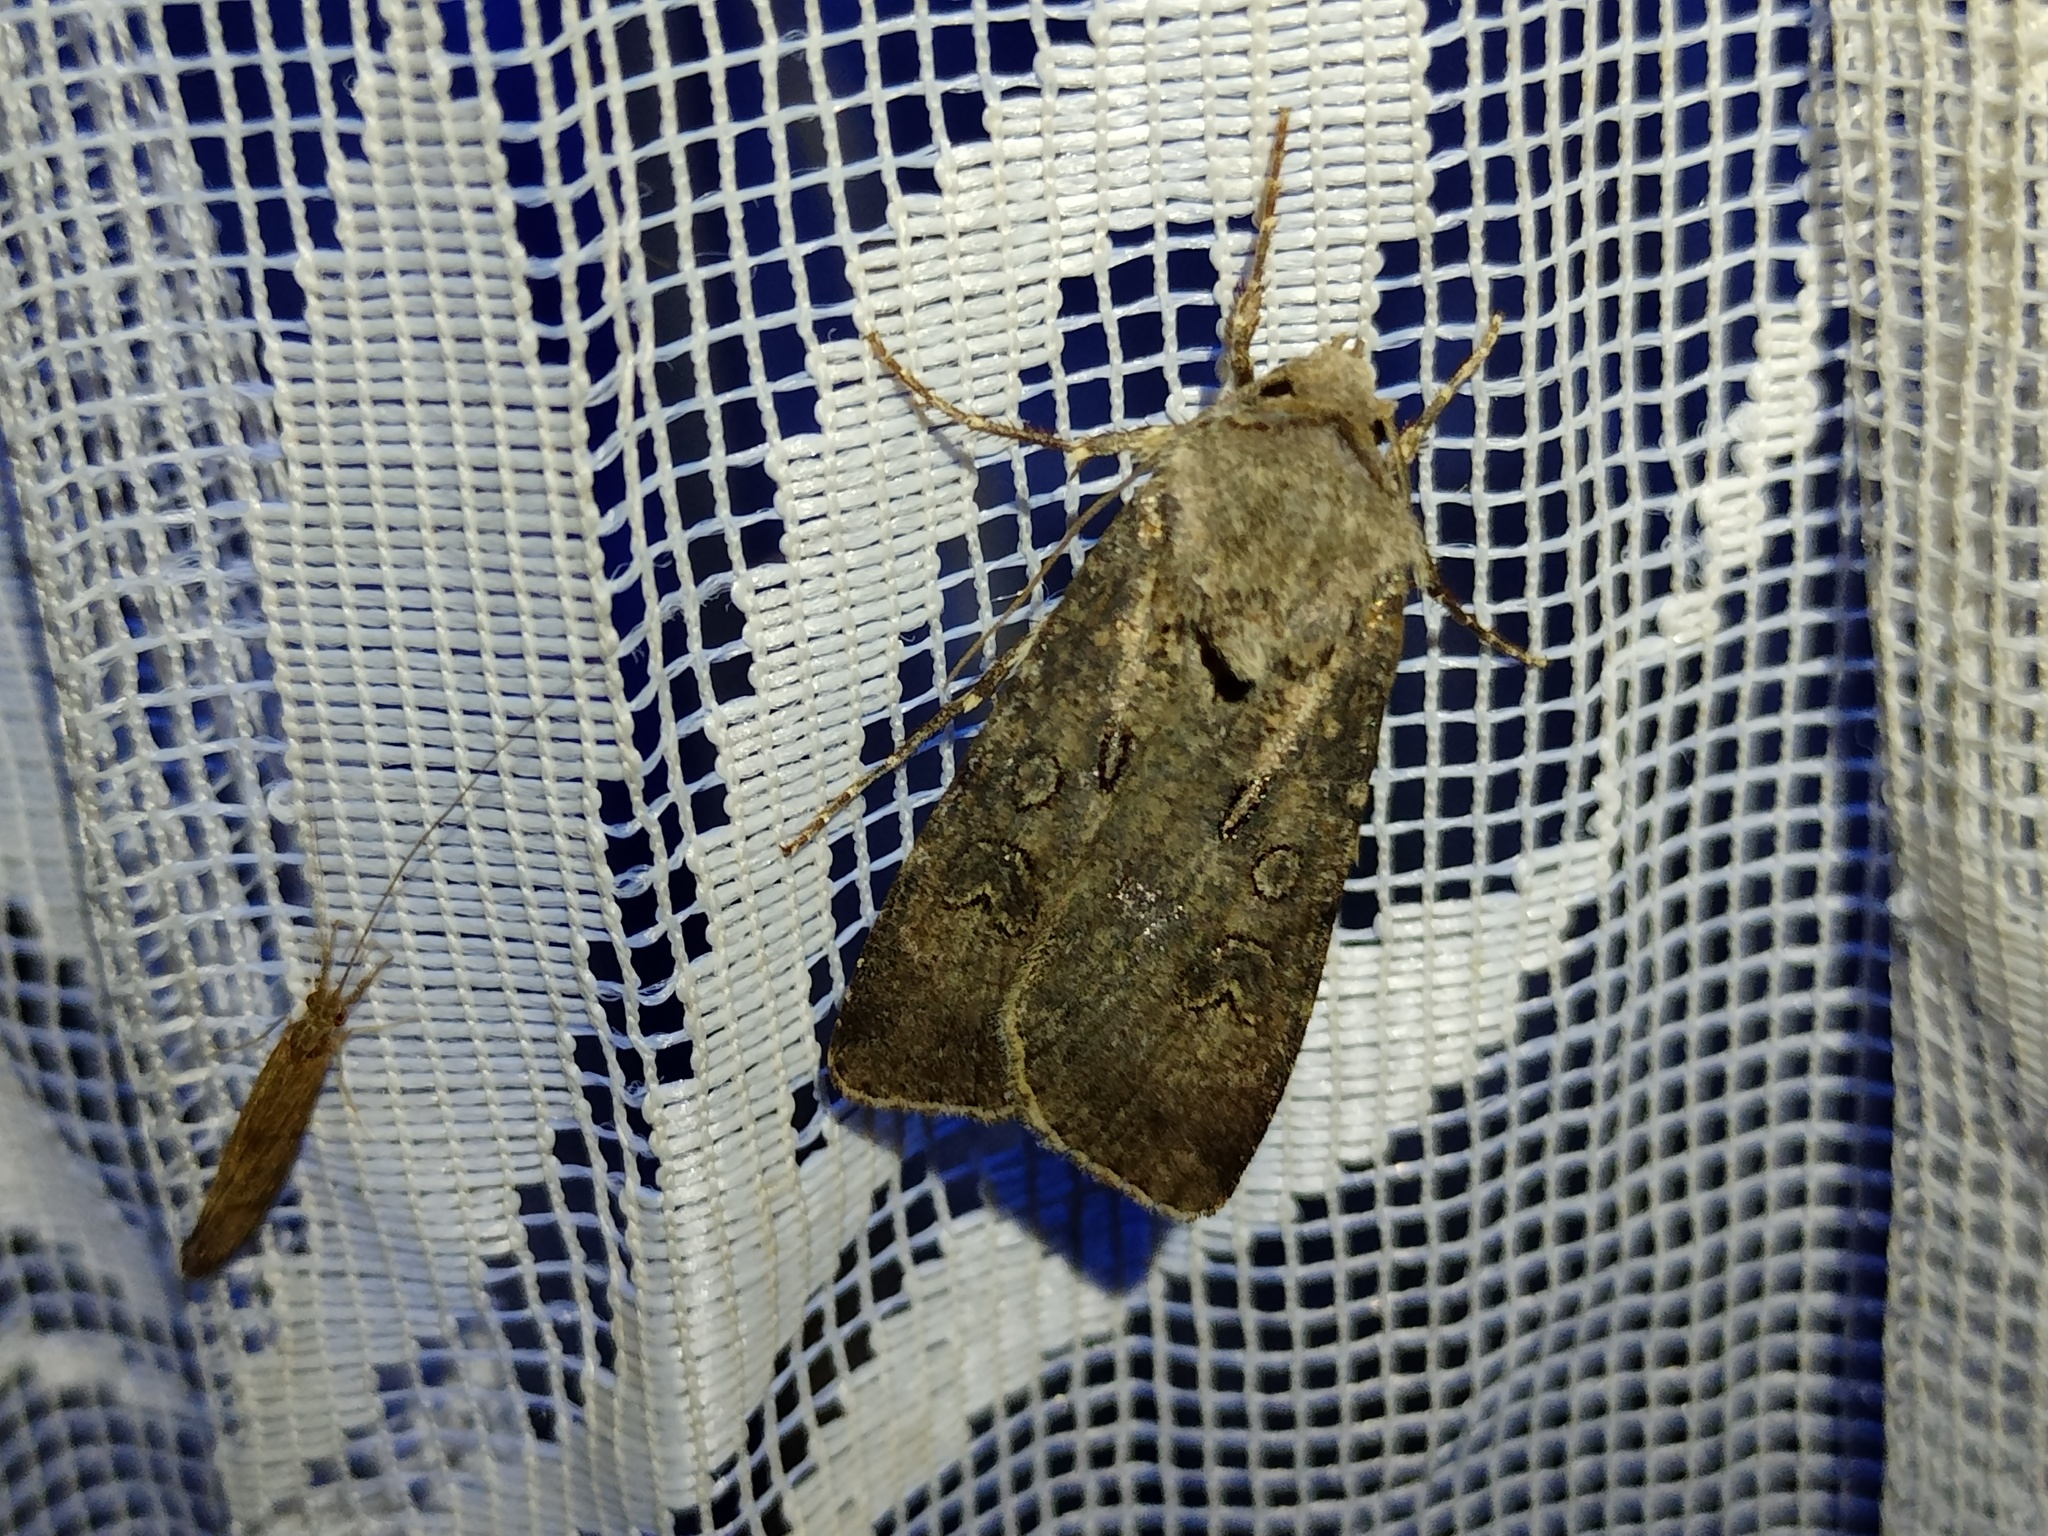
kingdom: Animalia
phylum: Arthropoda
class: Insecta
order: Lepidoptera
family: Noctuidae
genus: Agrotis
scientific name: Agrotis segetum
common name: Turnip moth
